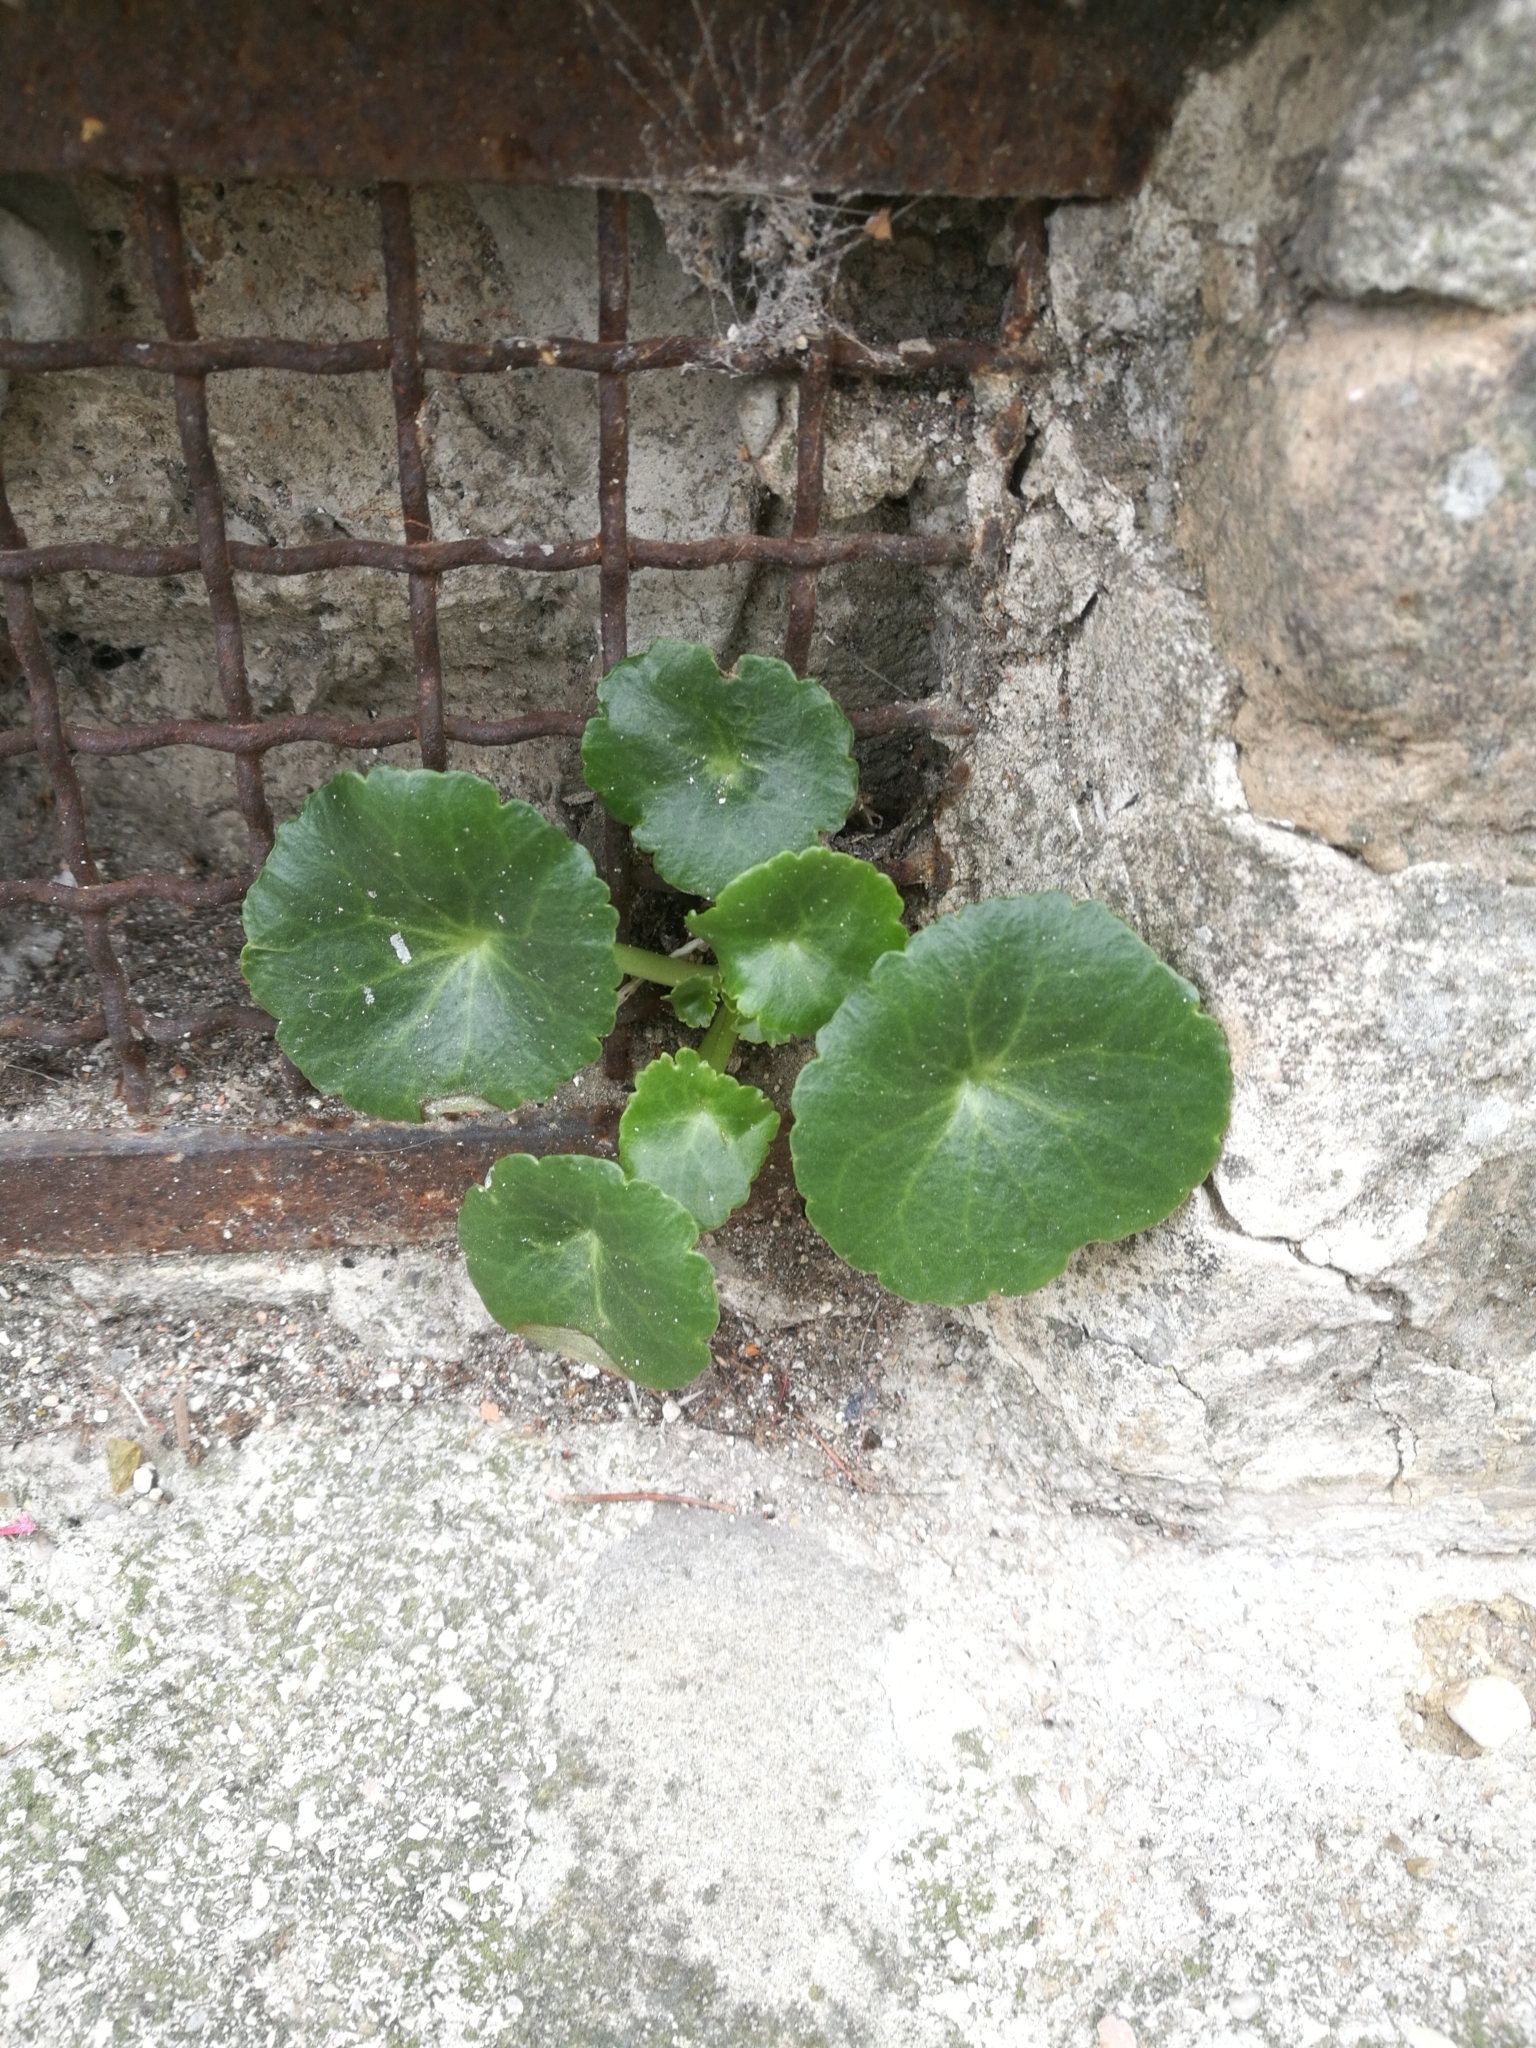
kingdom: Plantae
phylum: Tracheophyta
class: Magnoliopsida
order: Saxifragales
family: Crassulaceae
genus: Umbilicus
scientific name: Umbilicus rupestris
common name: Navelwort
